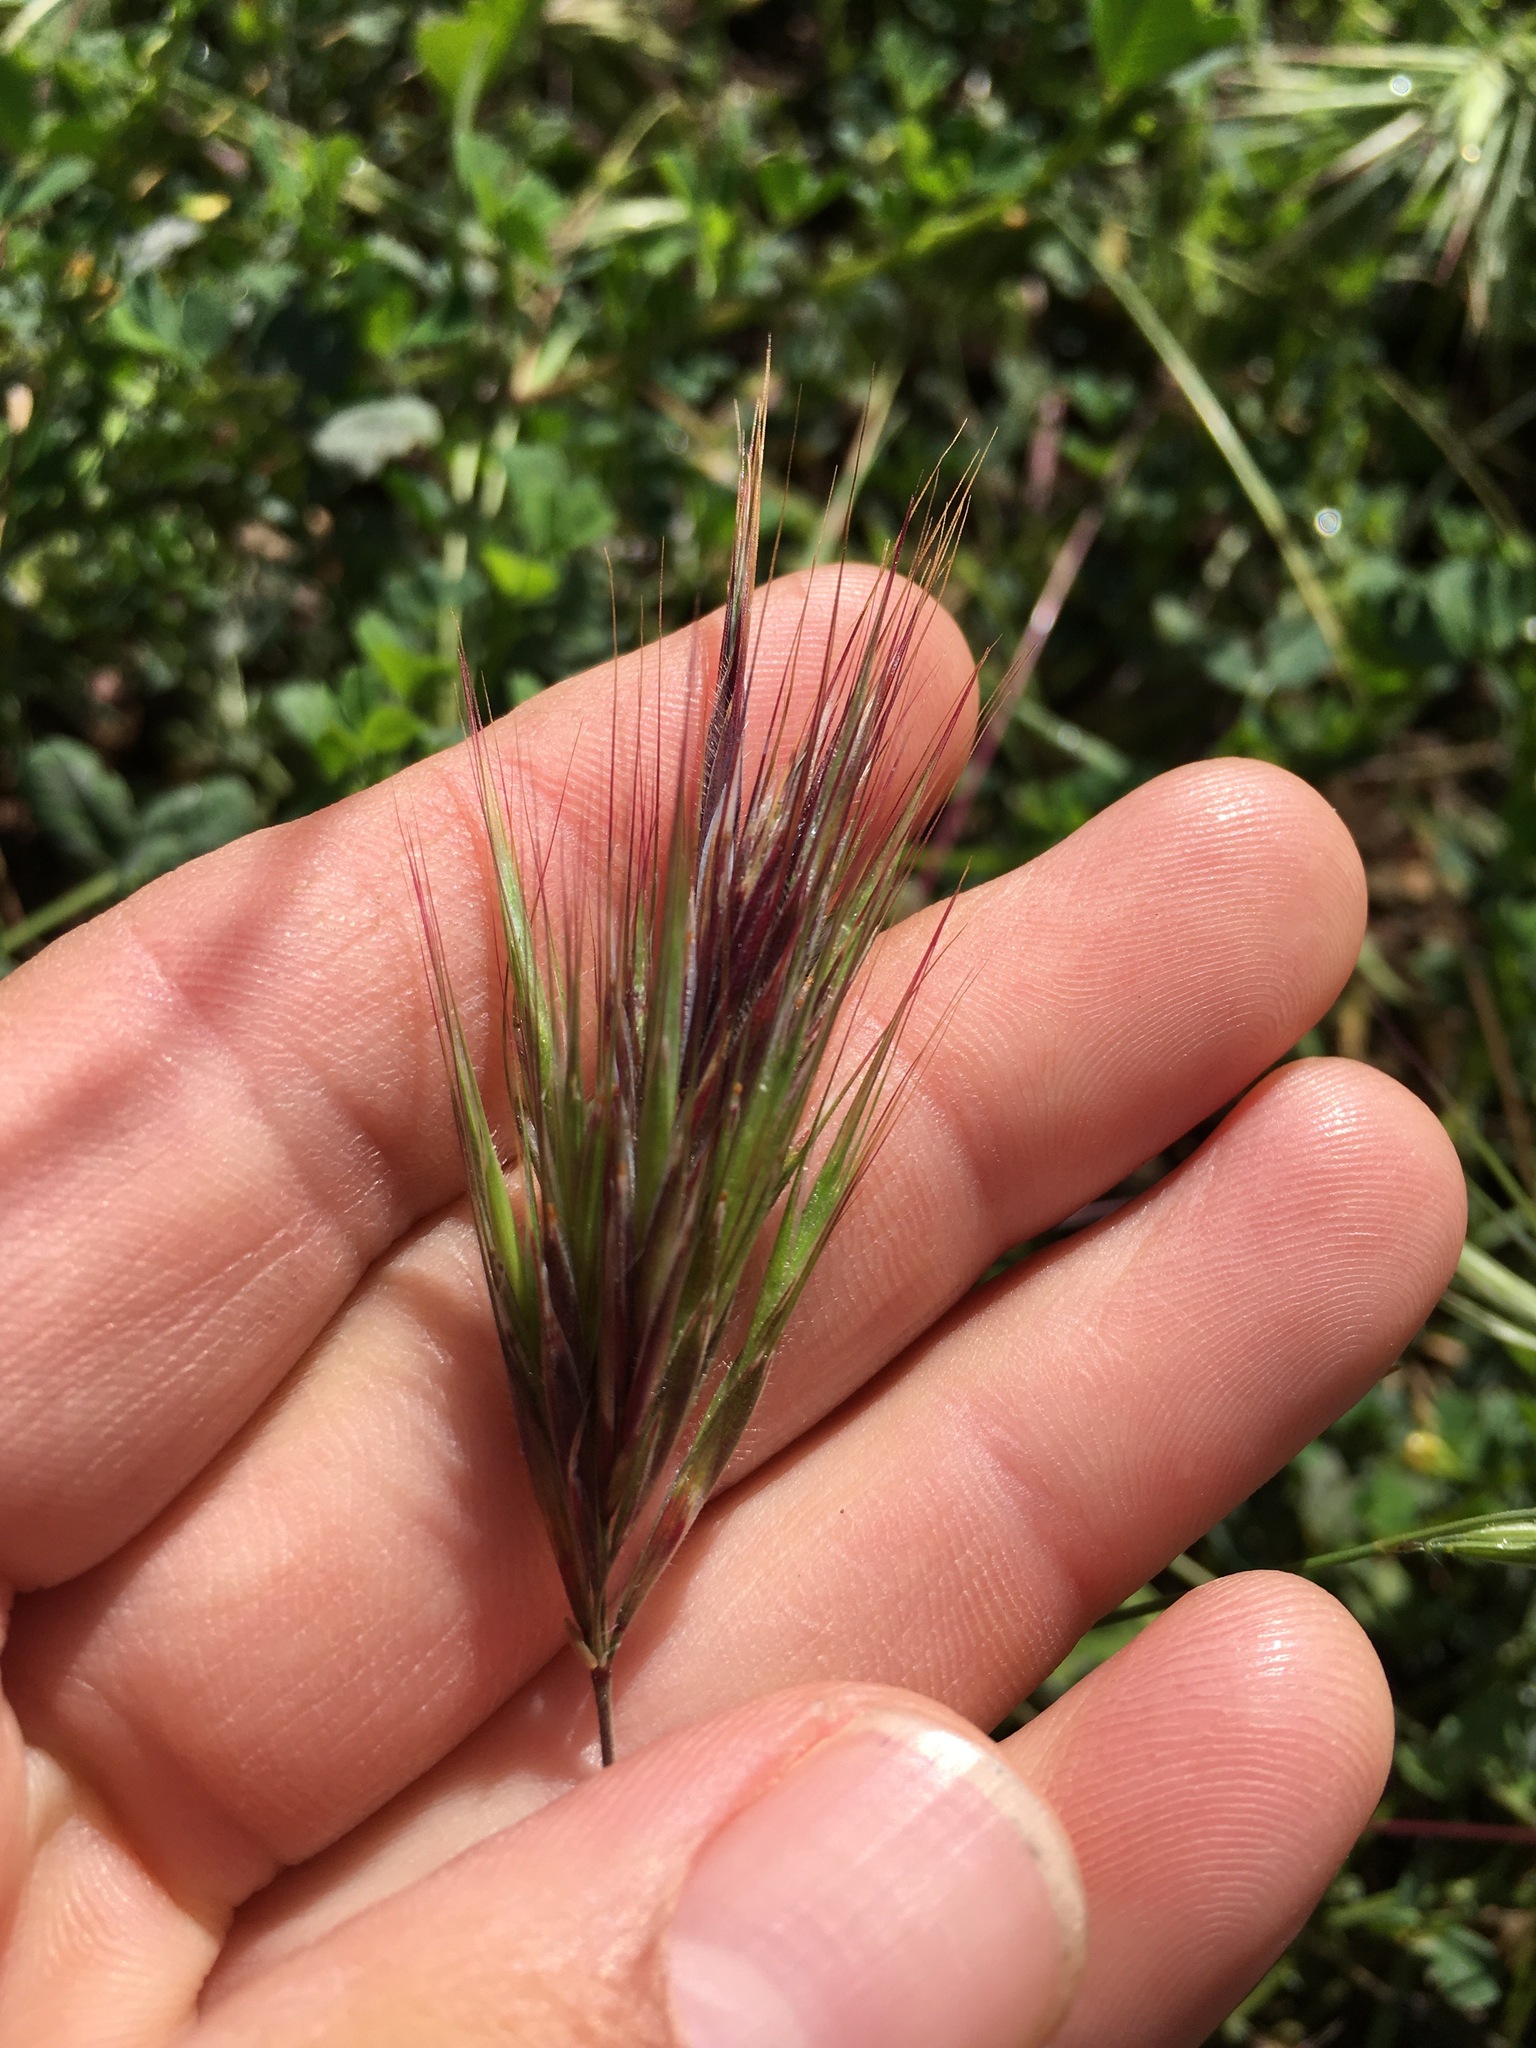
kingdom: Plantae
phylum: Tracheophyta
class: Liliopsida
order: Poales
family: Poaceae
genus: Bromus
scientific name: Bromus rubens
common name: Red brome
